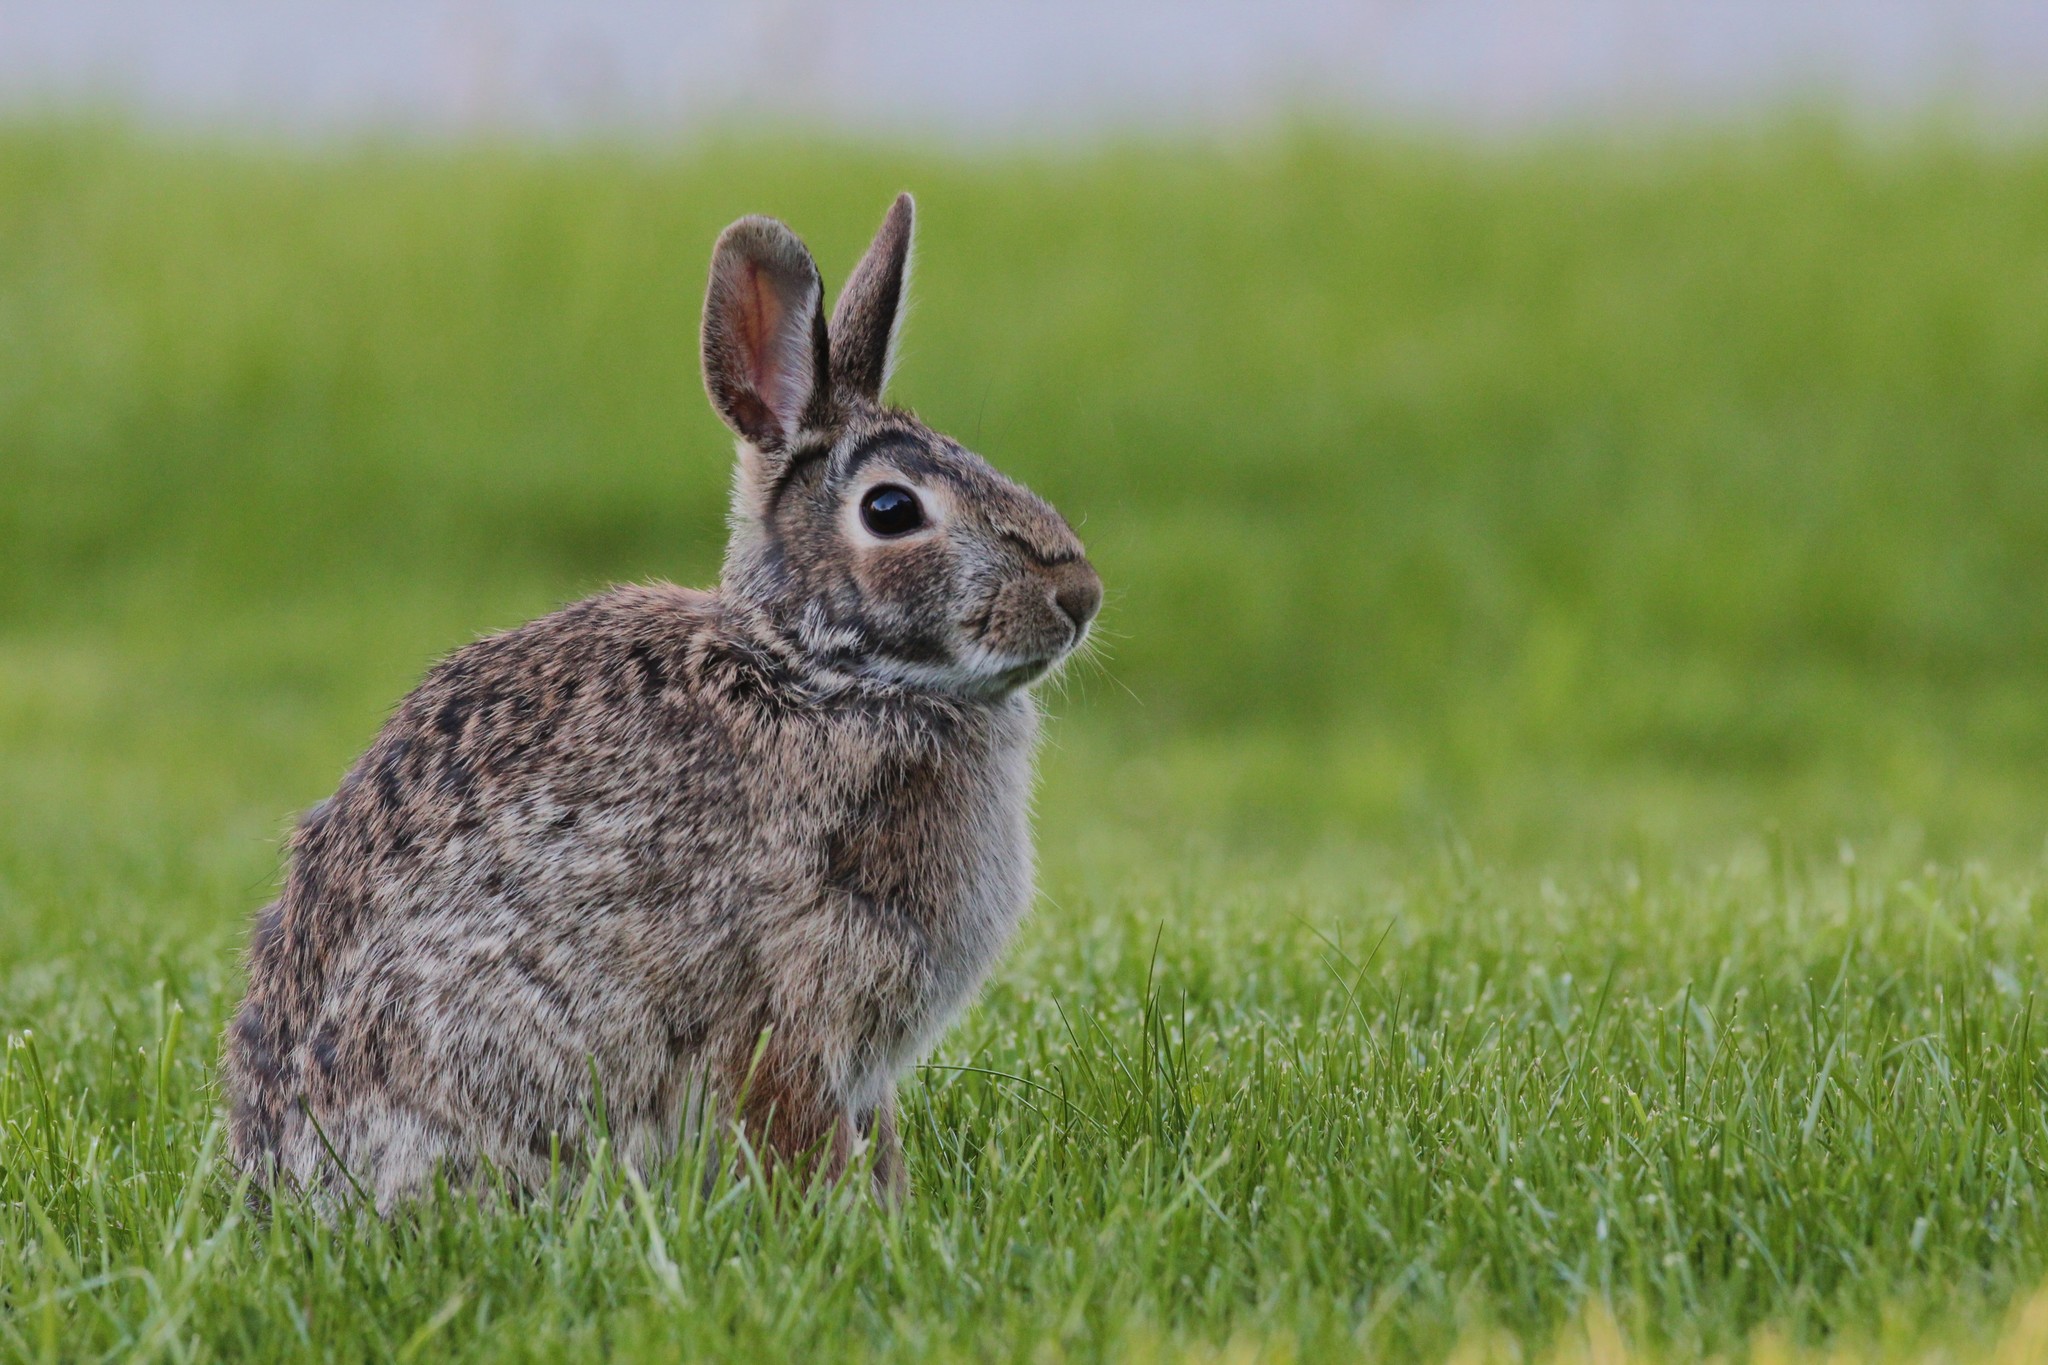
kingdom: Animalia
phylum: Chordata
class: Mammalia
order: Lagomorpha
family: Leporidae
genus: Sylvilagus
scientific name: Sylvilagus floridanus
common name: Eastern cottontail
